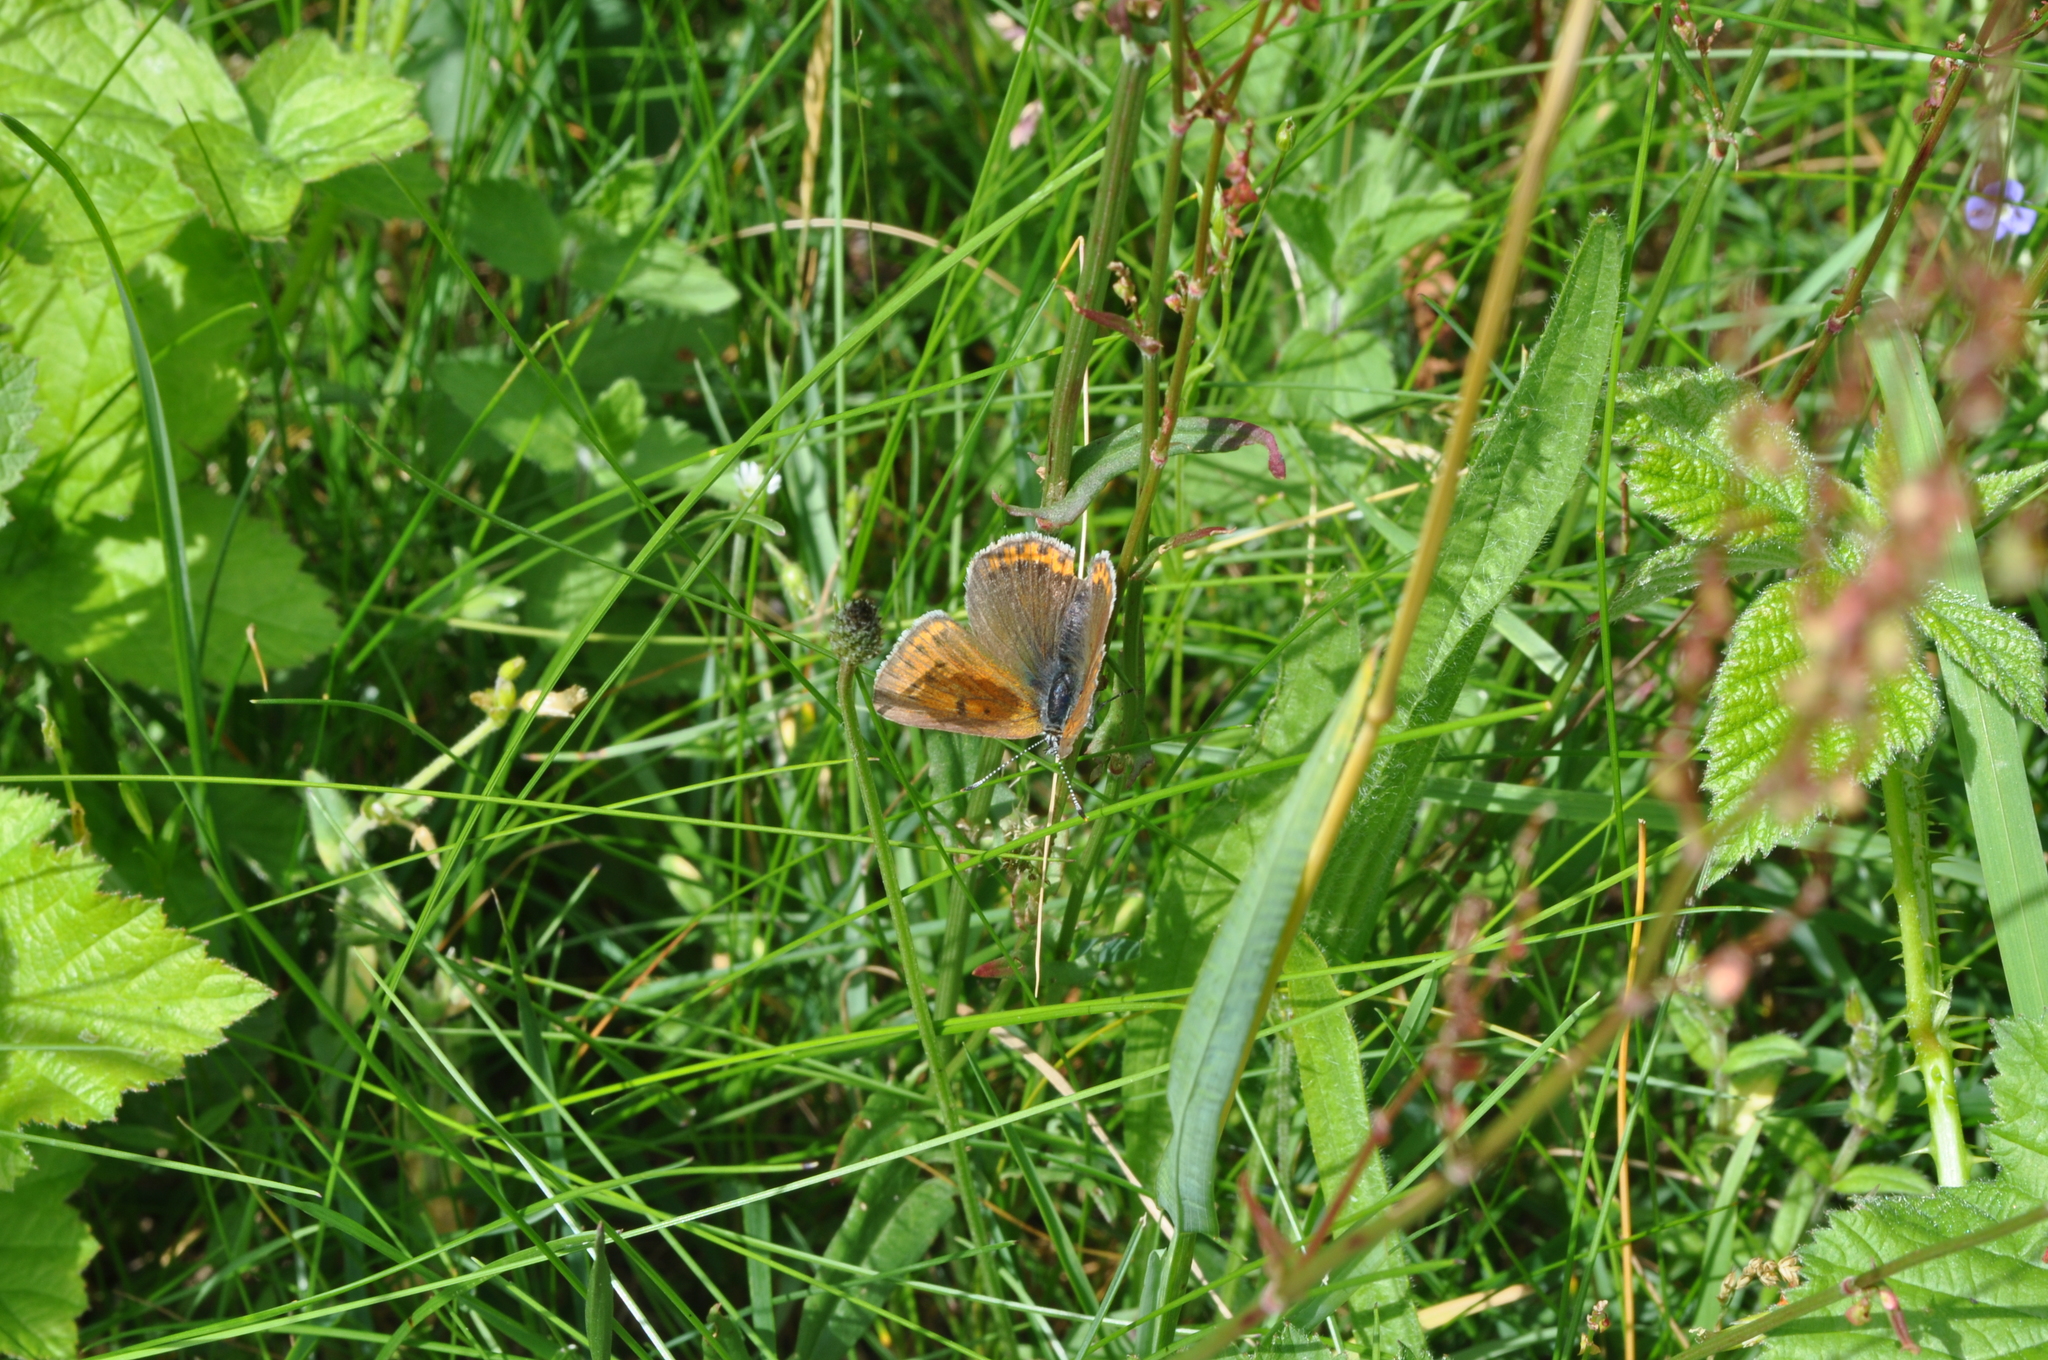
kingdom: Animalia
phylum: Arthropoda
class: Insecta
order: Lepidoptera
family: Lycaenidae
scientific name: Lycaenidae
